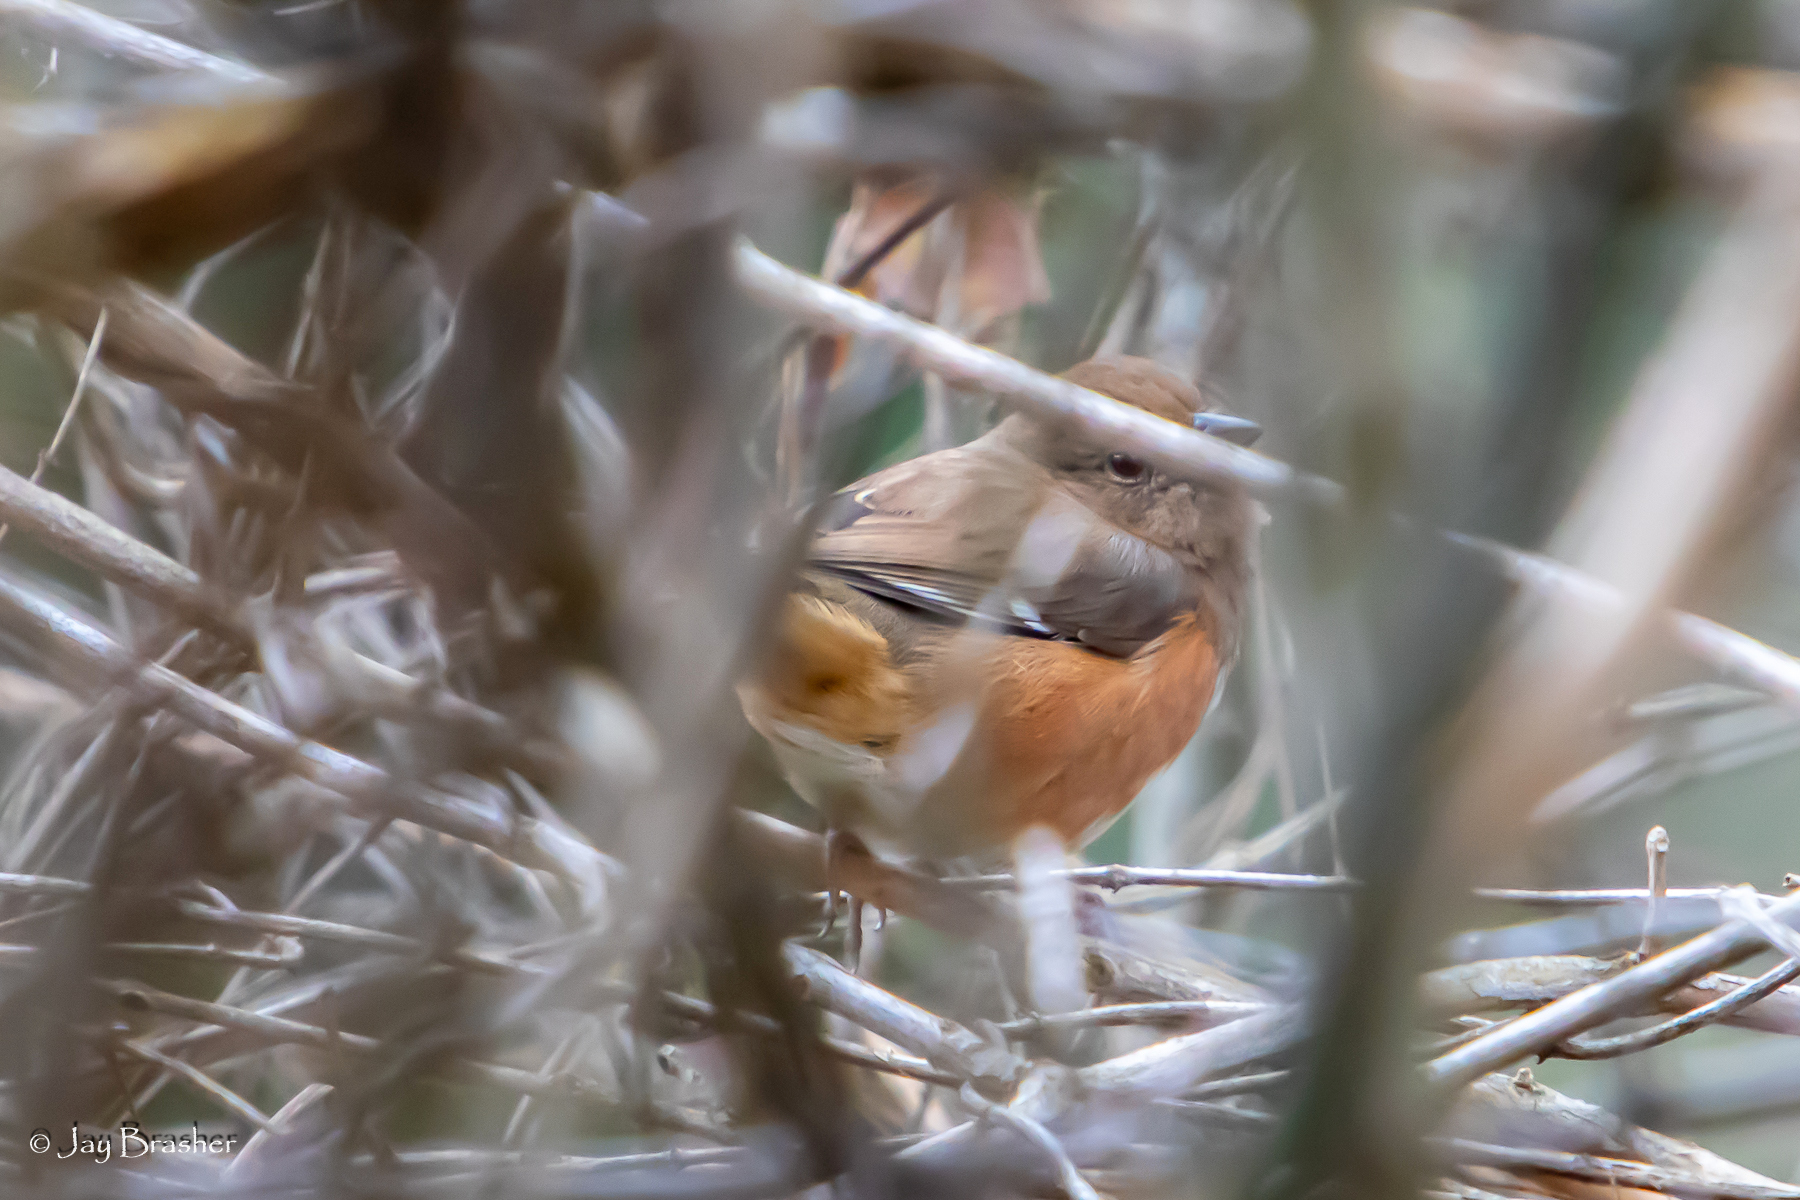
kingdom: Animalia
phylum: Chordata
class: Aves
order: Passeriformes
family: Passerellidae
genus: Pipilo
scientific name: Pipilo erythrophthalmus
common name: Eastern towhee
